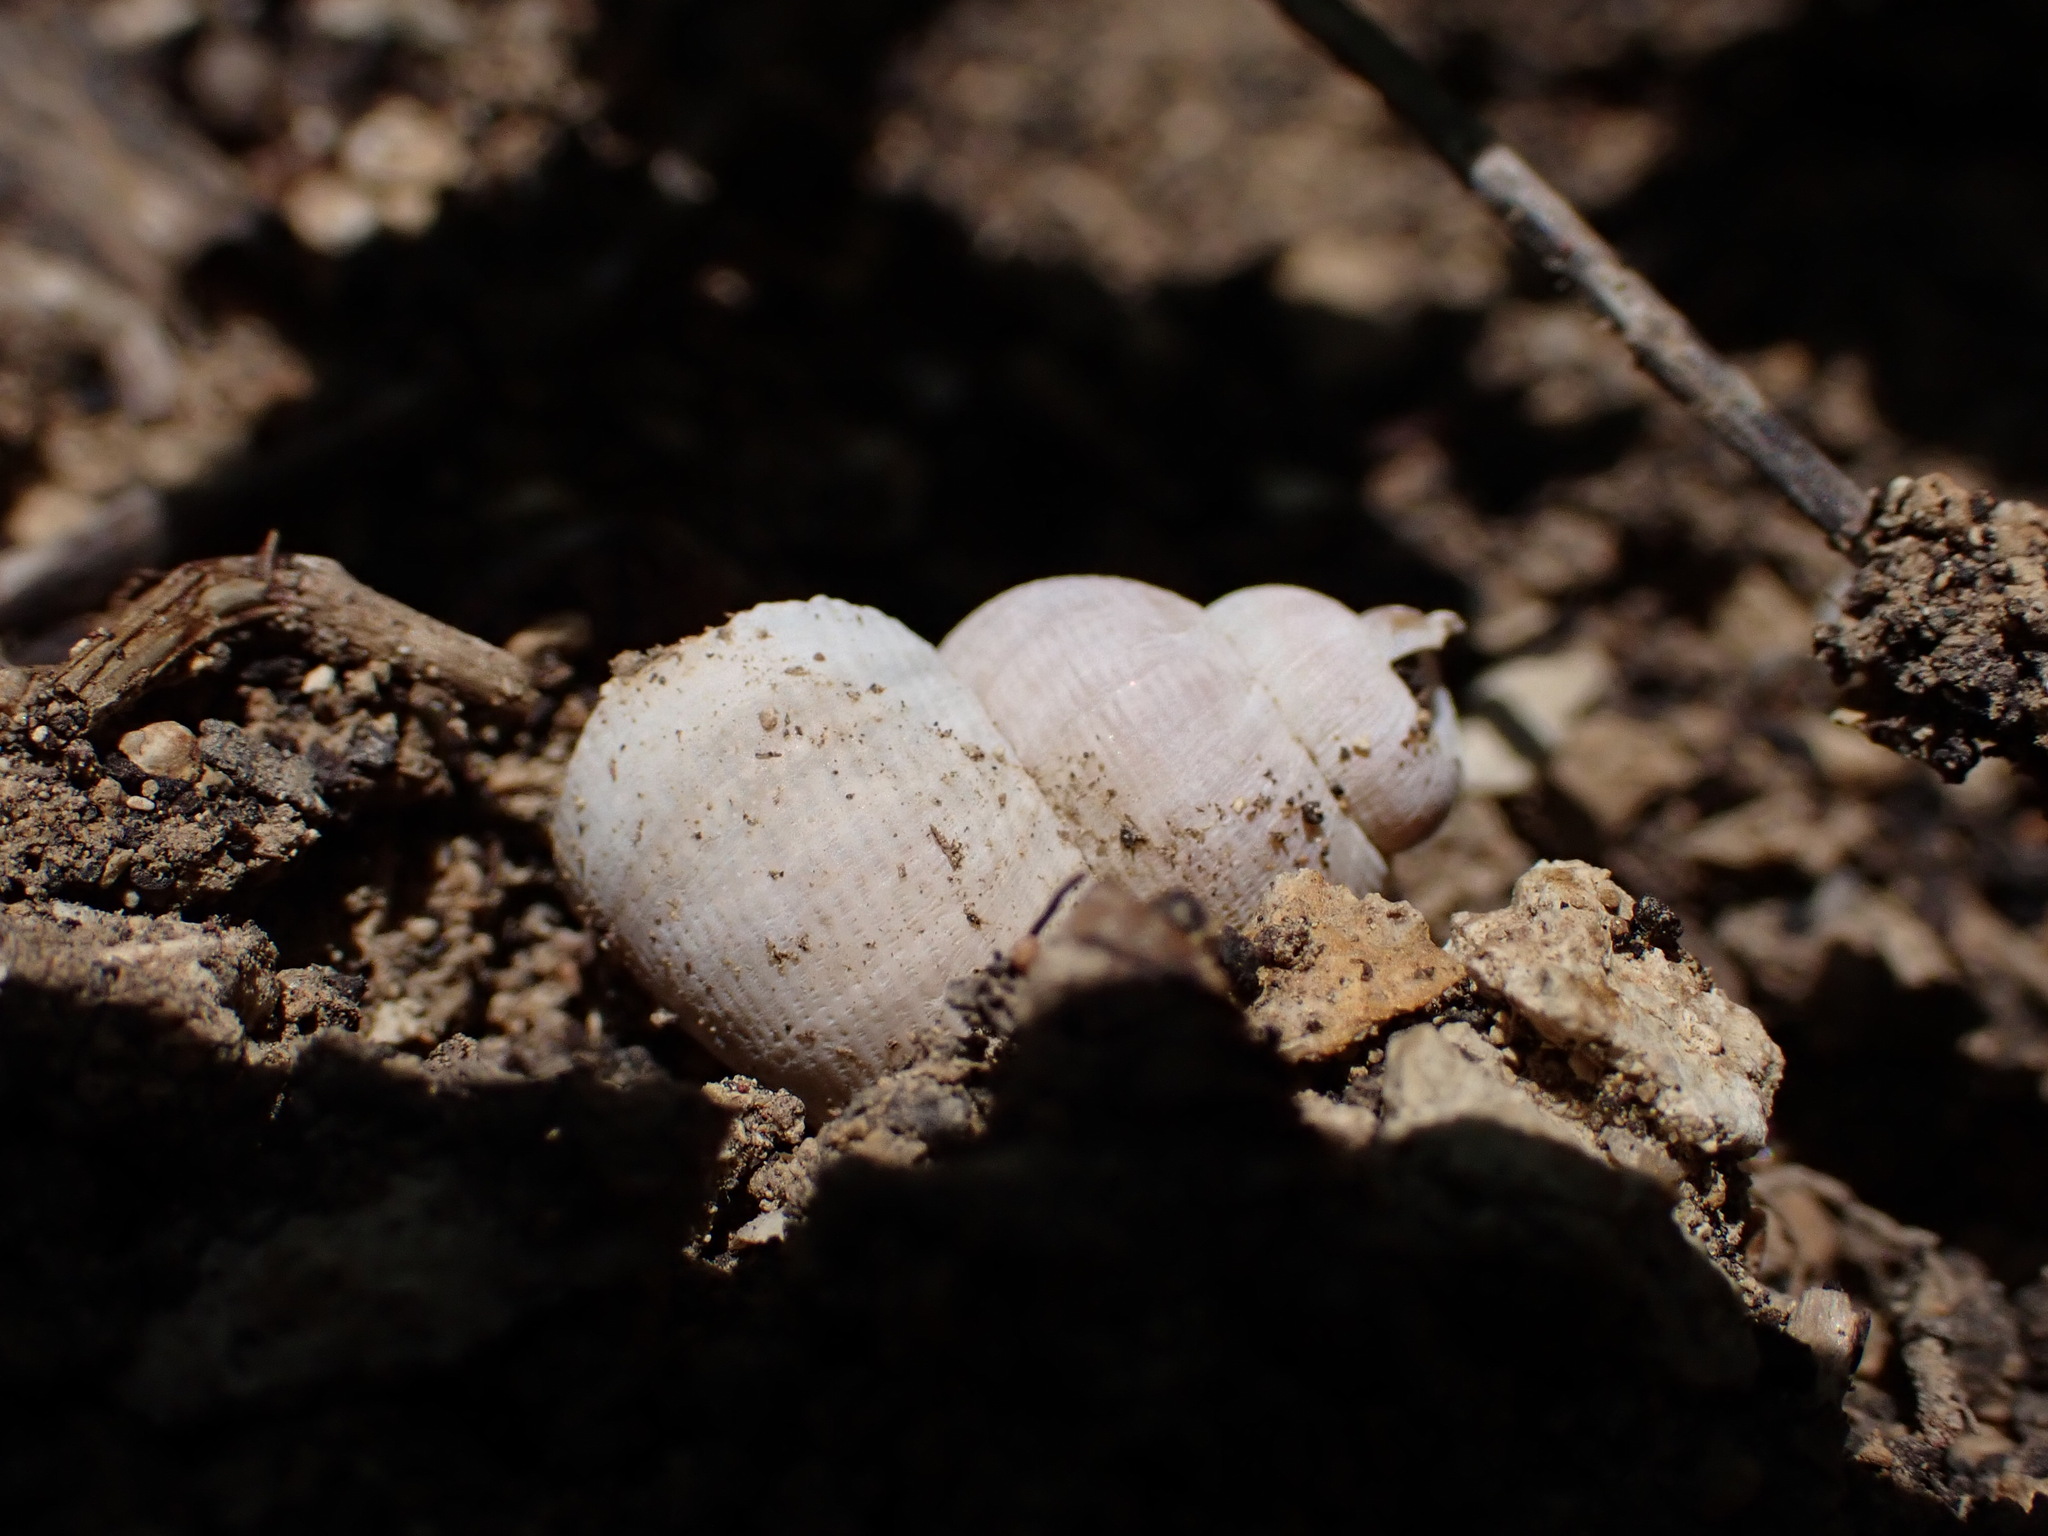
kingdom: Animalia
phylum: Mollusca
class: Gastropoda
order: Littorinimorpha
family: Pomatiidae
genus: Pomatias
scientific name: Pomatias elegans
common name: Red-mouthed snail
